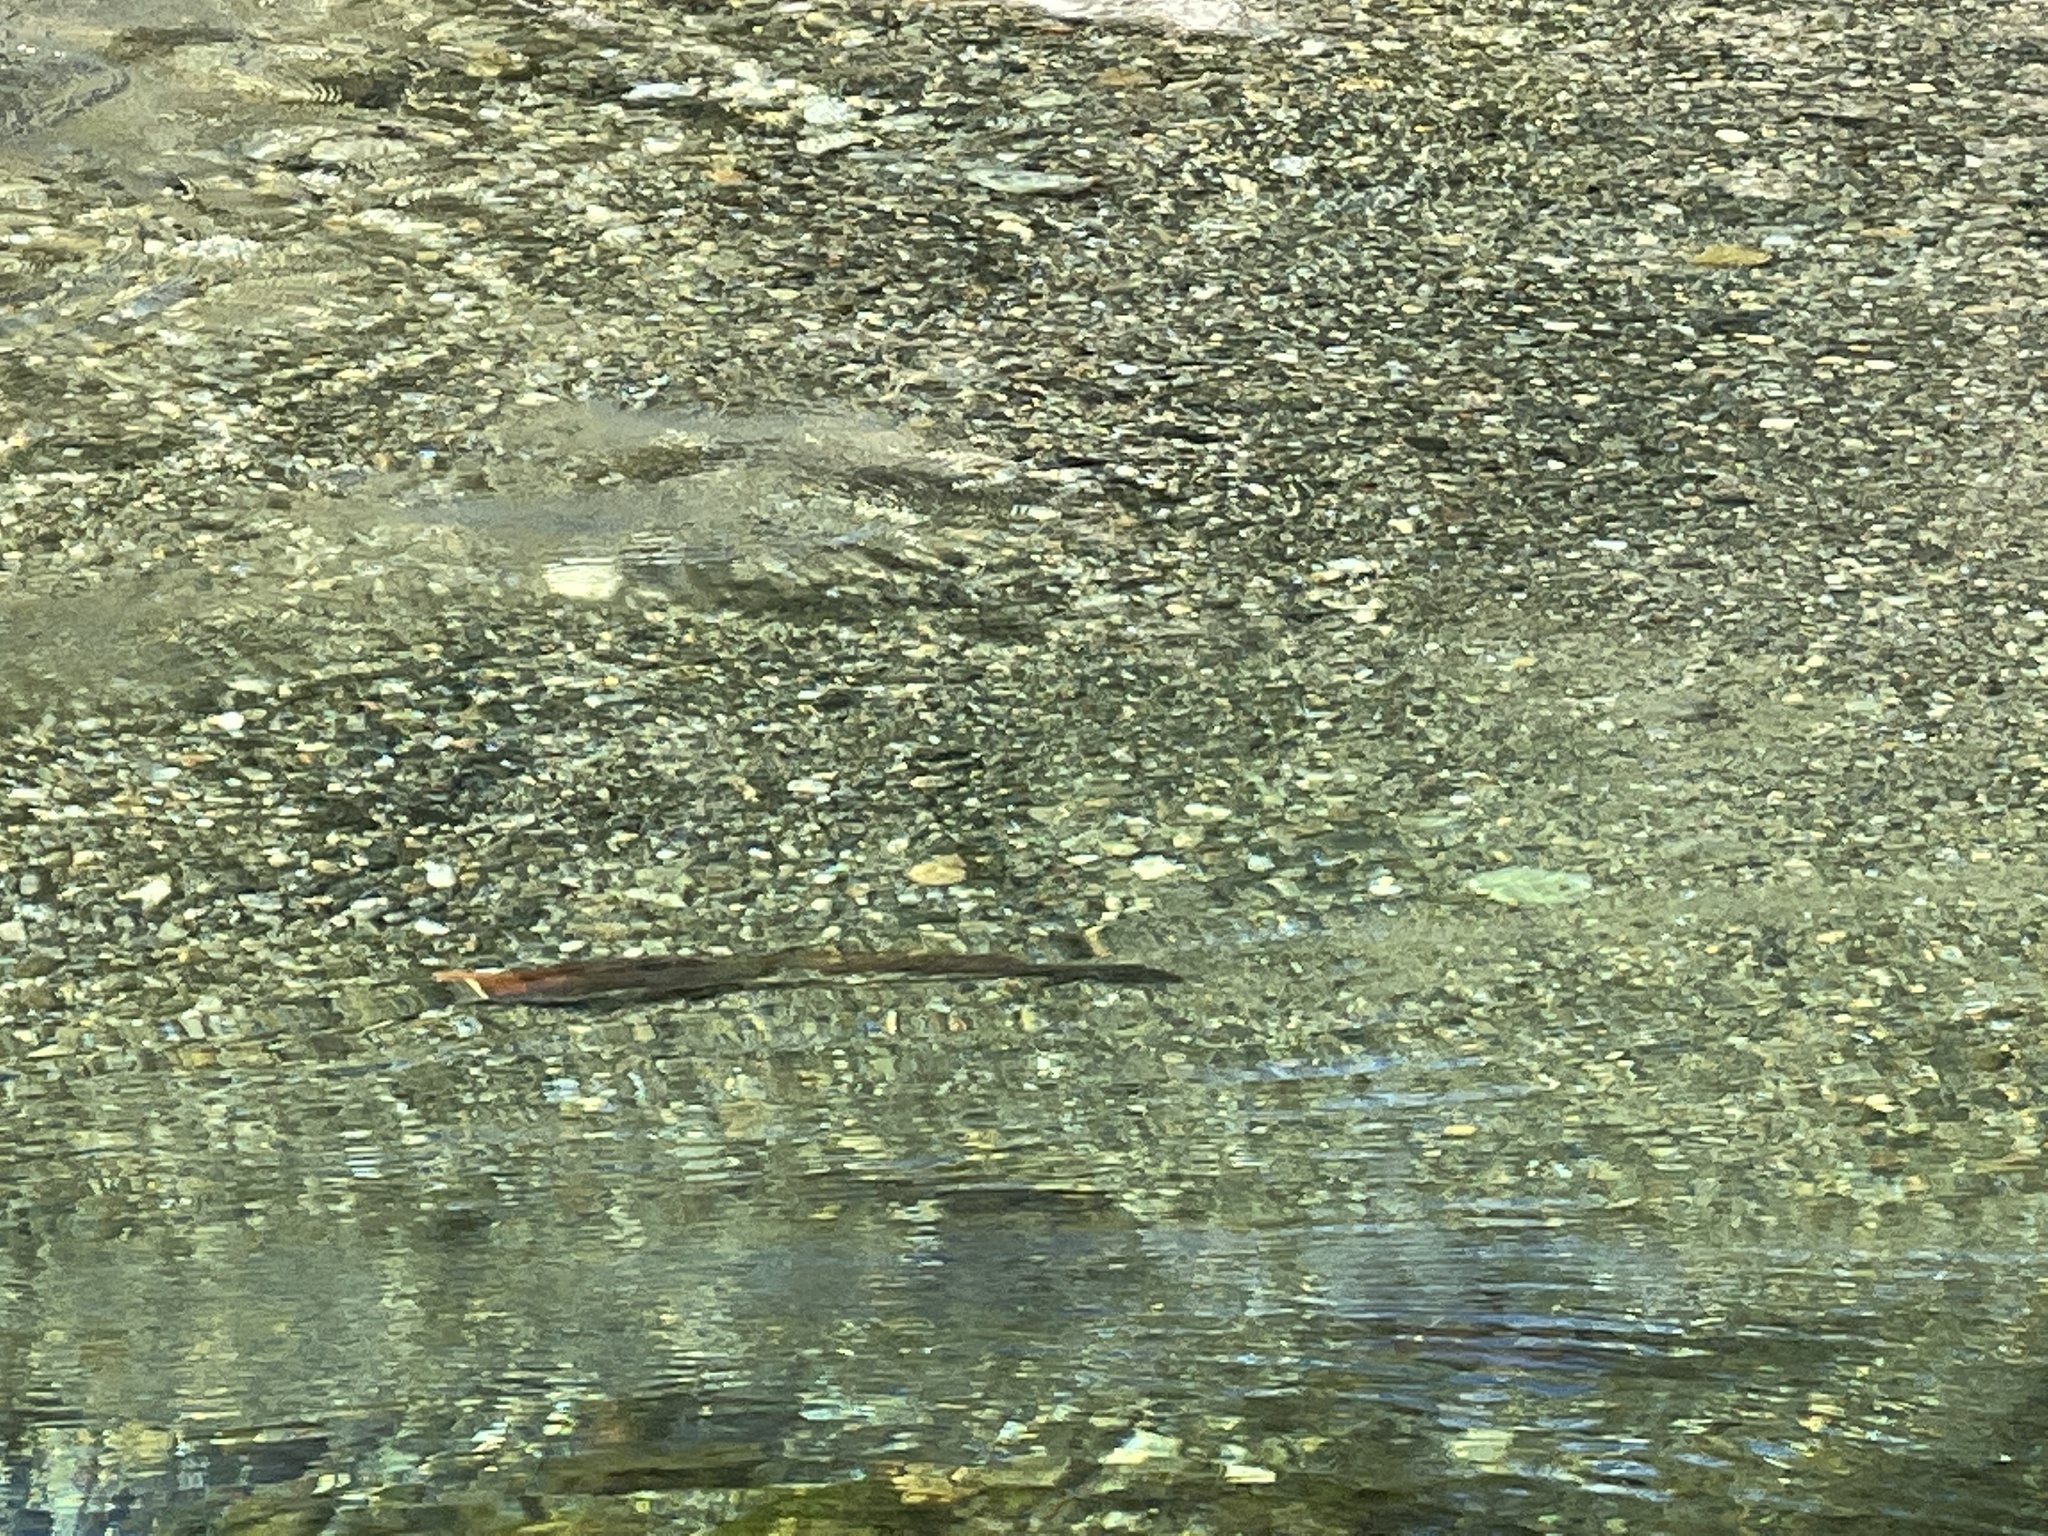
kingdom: Animalia
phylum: Chordata
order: Salmoniformes
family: Salmonidae
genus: Oncorhynchus
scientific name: Oncorhynchus nerka
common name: Sockeye salmon
